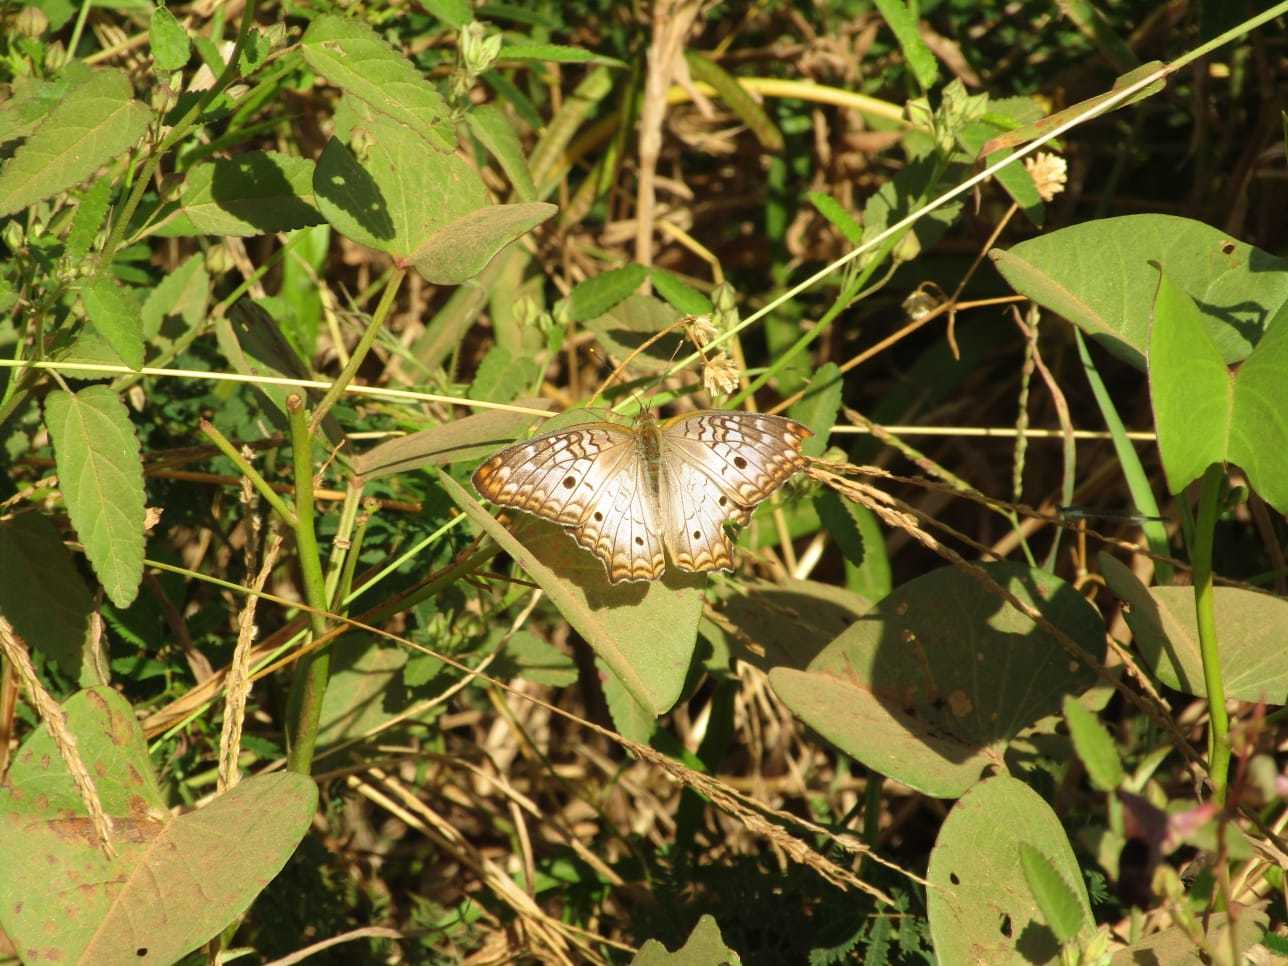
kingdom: Animalia
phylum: Arthropoda
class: Insecta
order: Lepidoptera
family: Nymphalidae
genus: Anartia
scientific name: Anartia jatrophae
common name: White peacock
